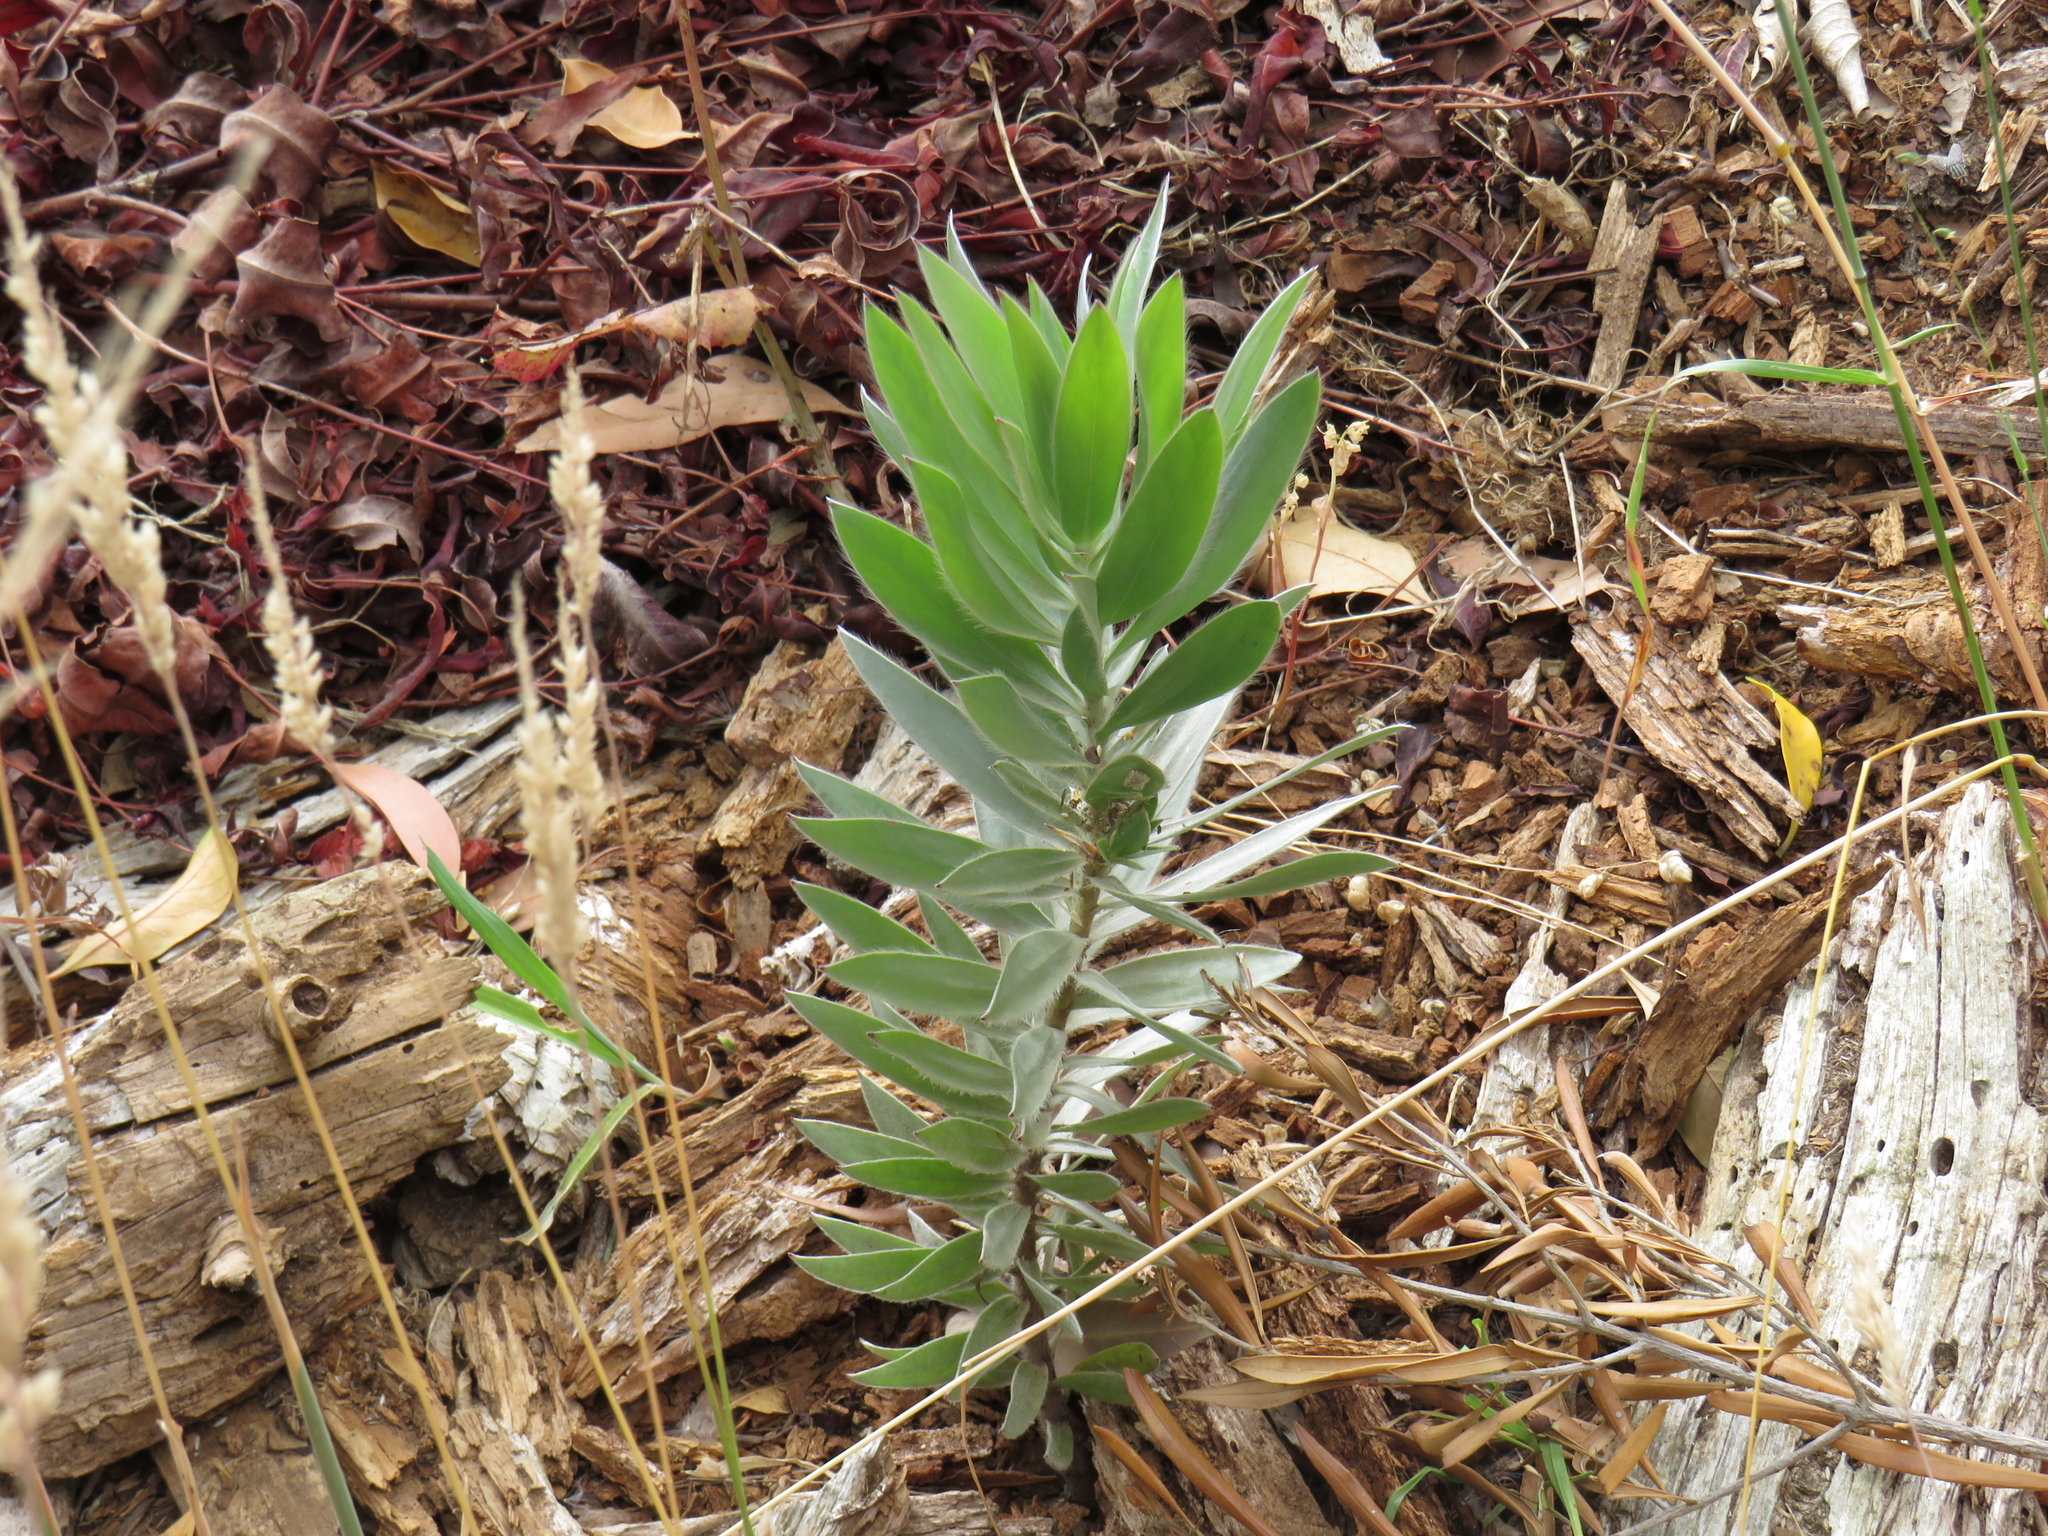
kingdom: Plantae
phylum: Tracheophyta
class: Magnoliopsida
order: Proteales
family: Proteaceae
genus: Leucadendron
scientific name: Leucadendron argenteum
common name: Cape silver tree
